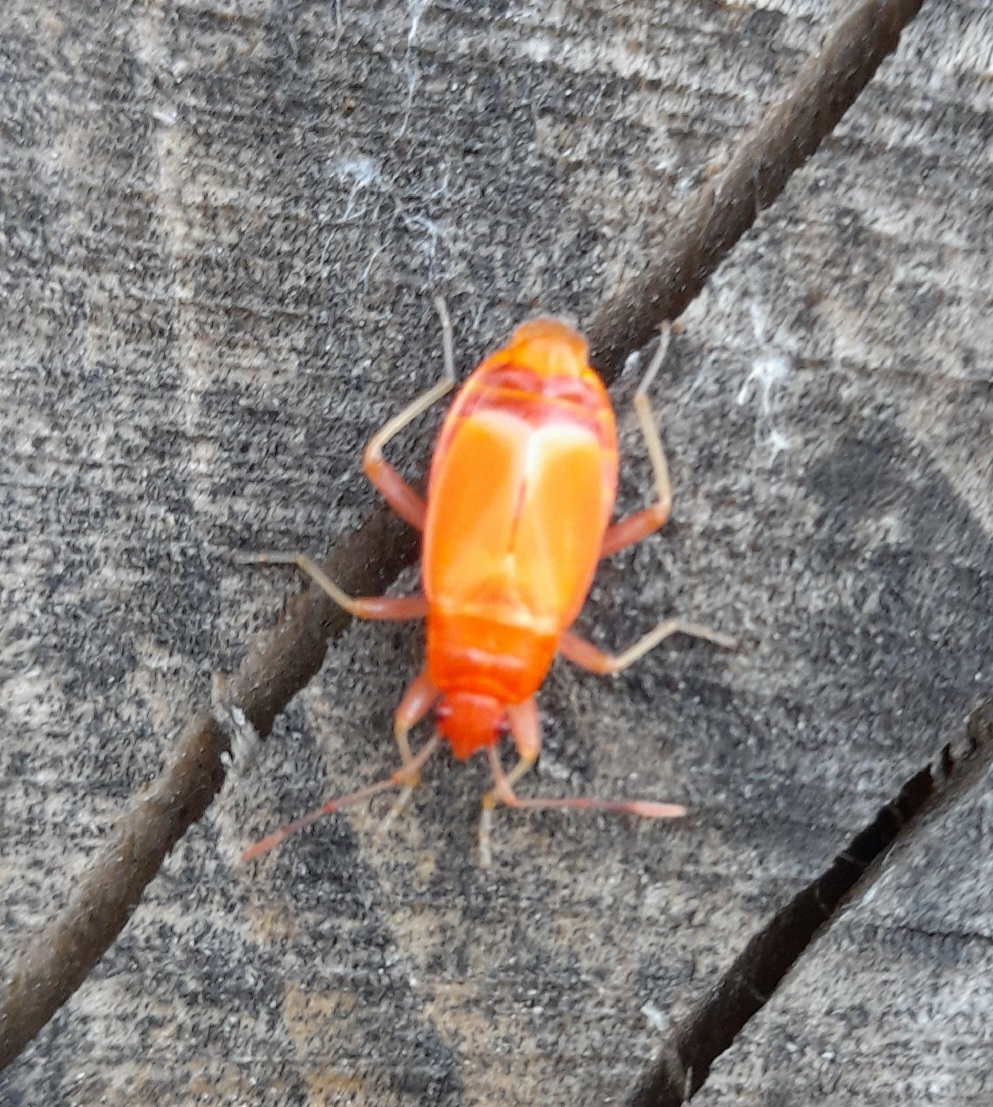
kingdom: Animalia
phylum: Arthropoda
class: Insecta
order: Hemiptera
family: Pyrrhocoridae
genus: Pyrrhocoris
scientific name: Pyrrhocoris apterus
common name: Firebug
